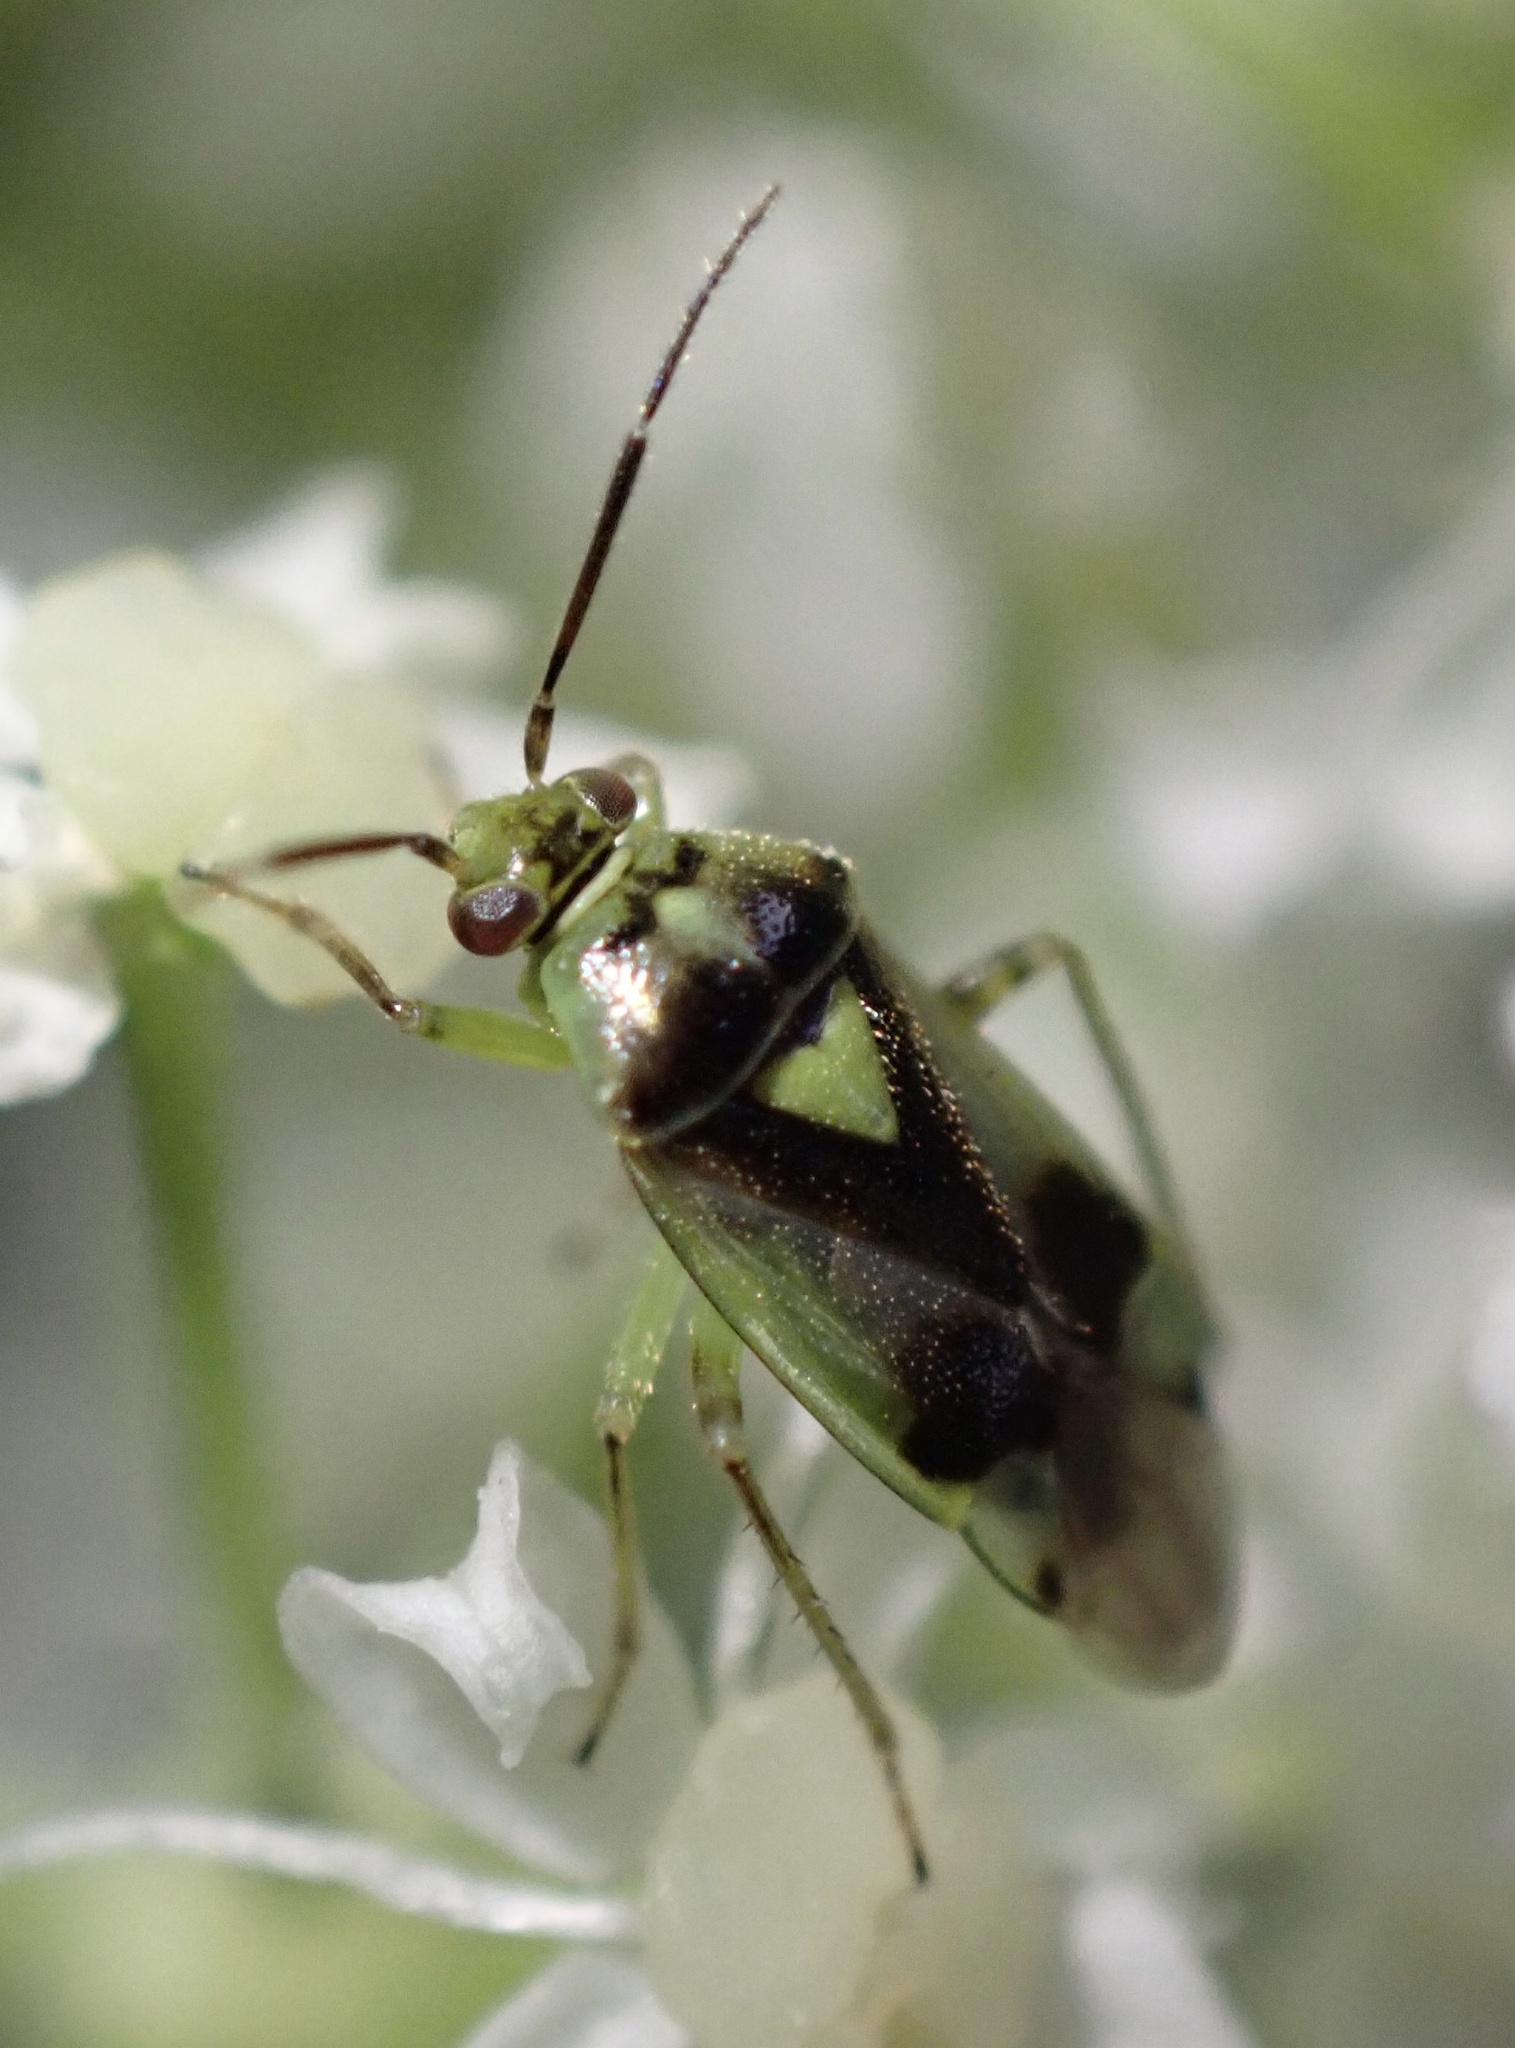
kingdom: Animalia
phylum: Arthropoda
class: Insecta
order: Hemiptera
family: Miridae
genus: Orthops
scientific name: Orthops campestris
